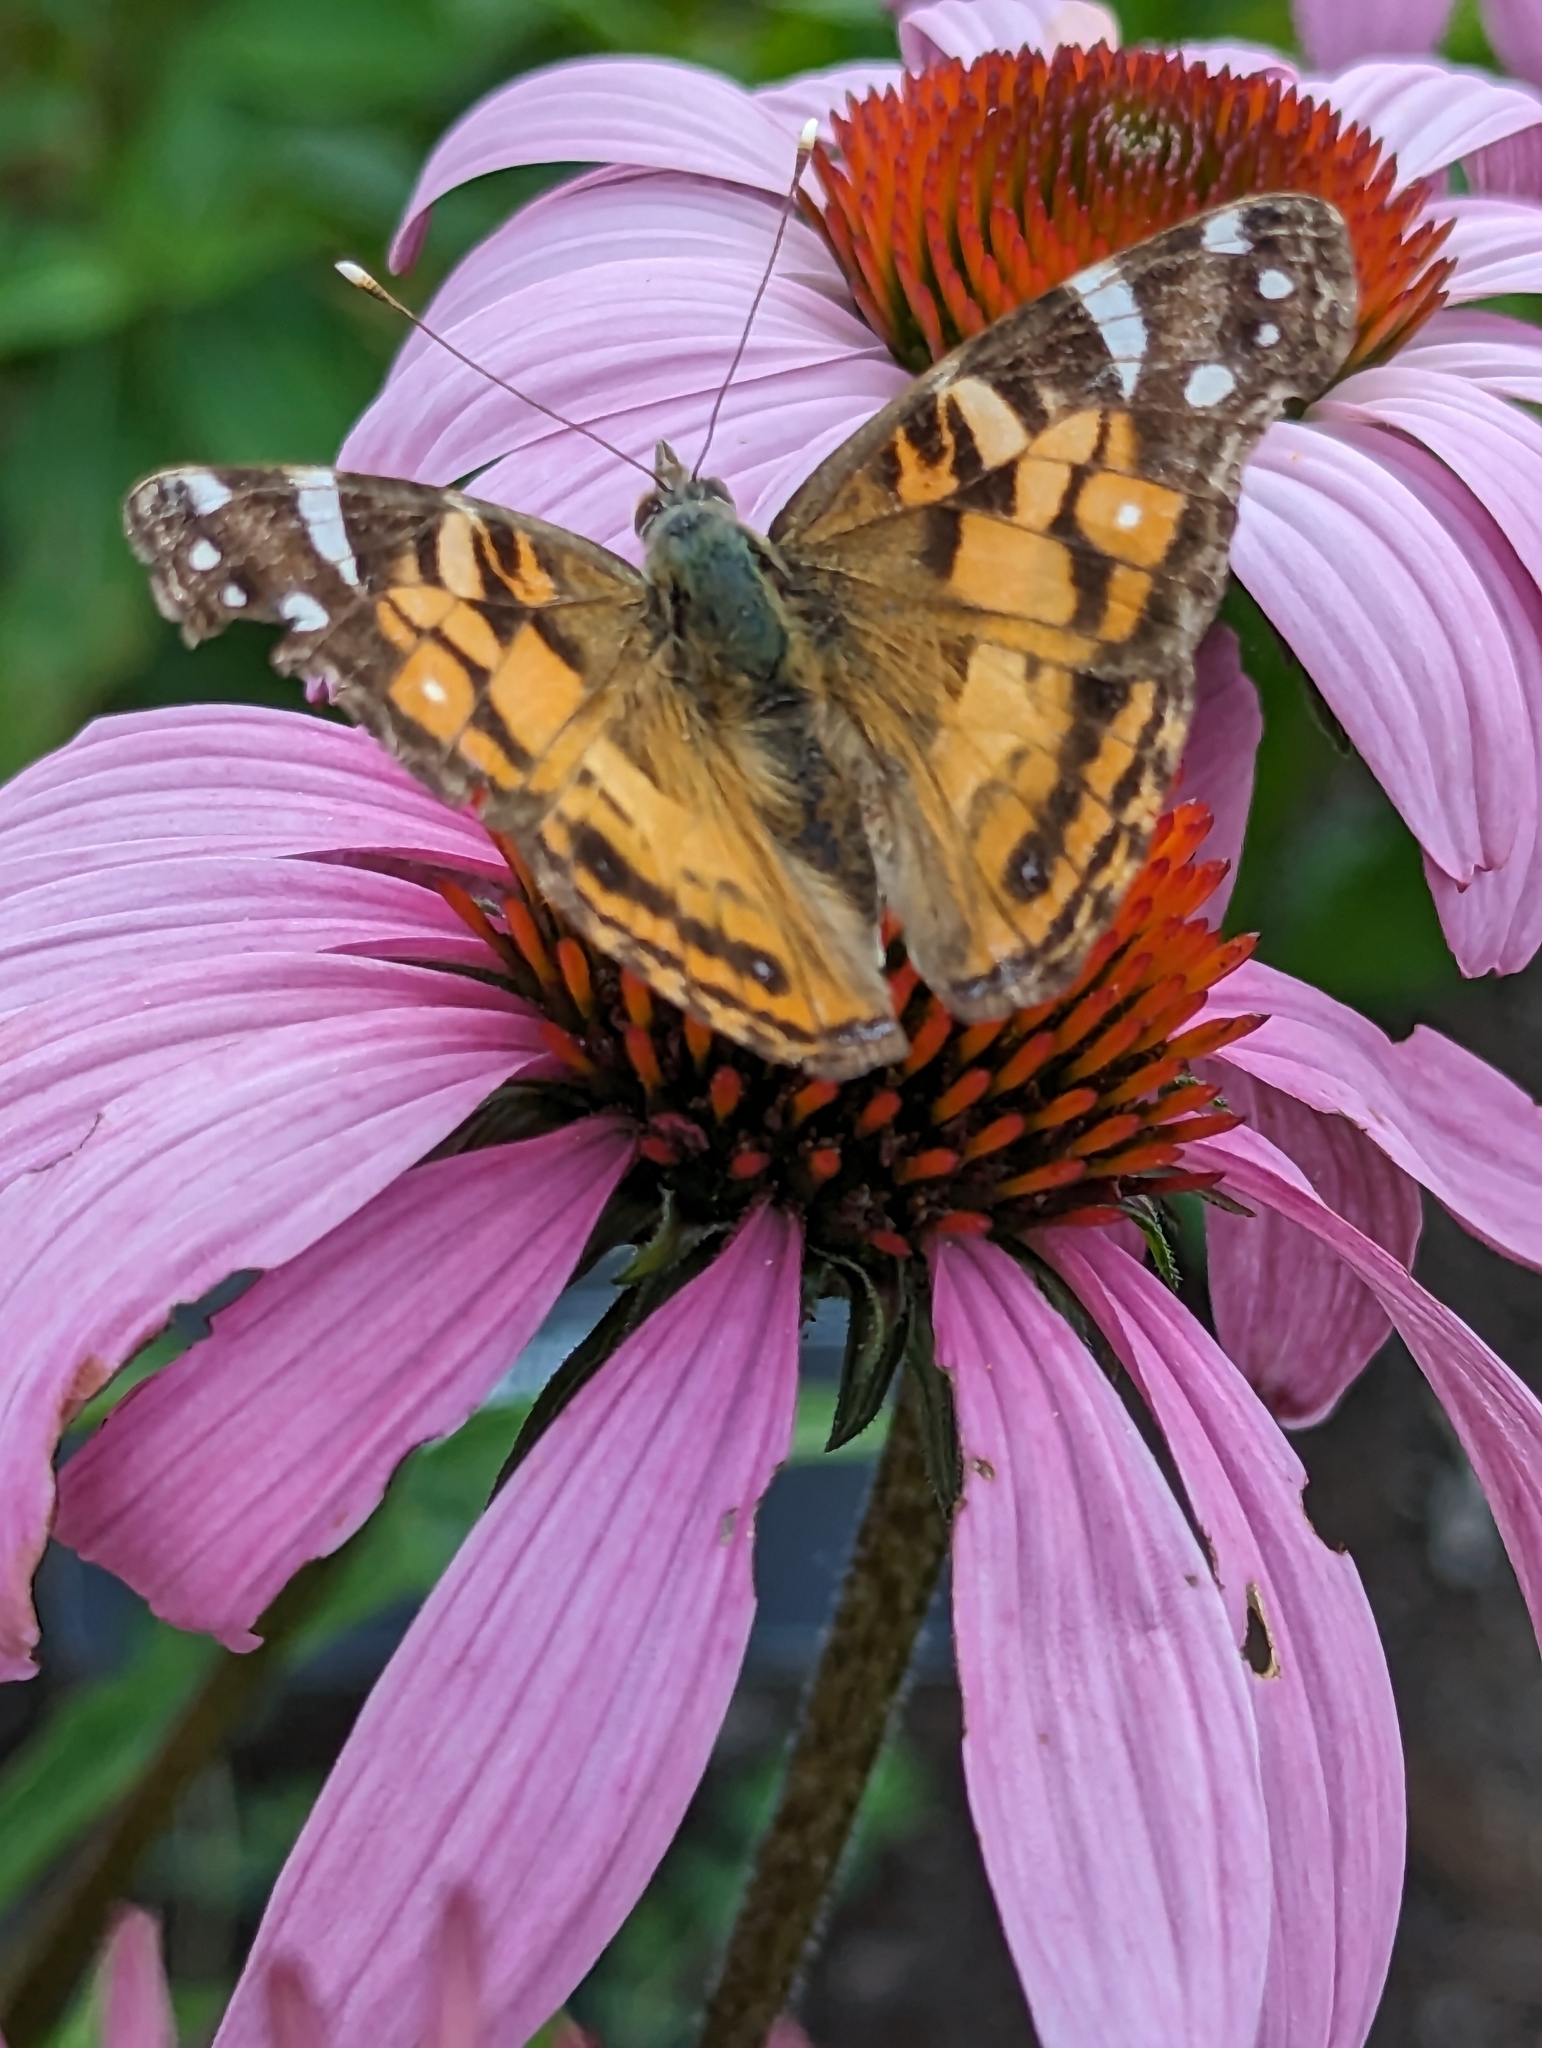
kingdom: Animalia
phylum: Arthropoda
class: Insecta
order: Lepidoptera
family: Nymphalidae
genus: Vanessa
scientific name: Vanessa virginiensis
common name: American lady
